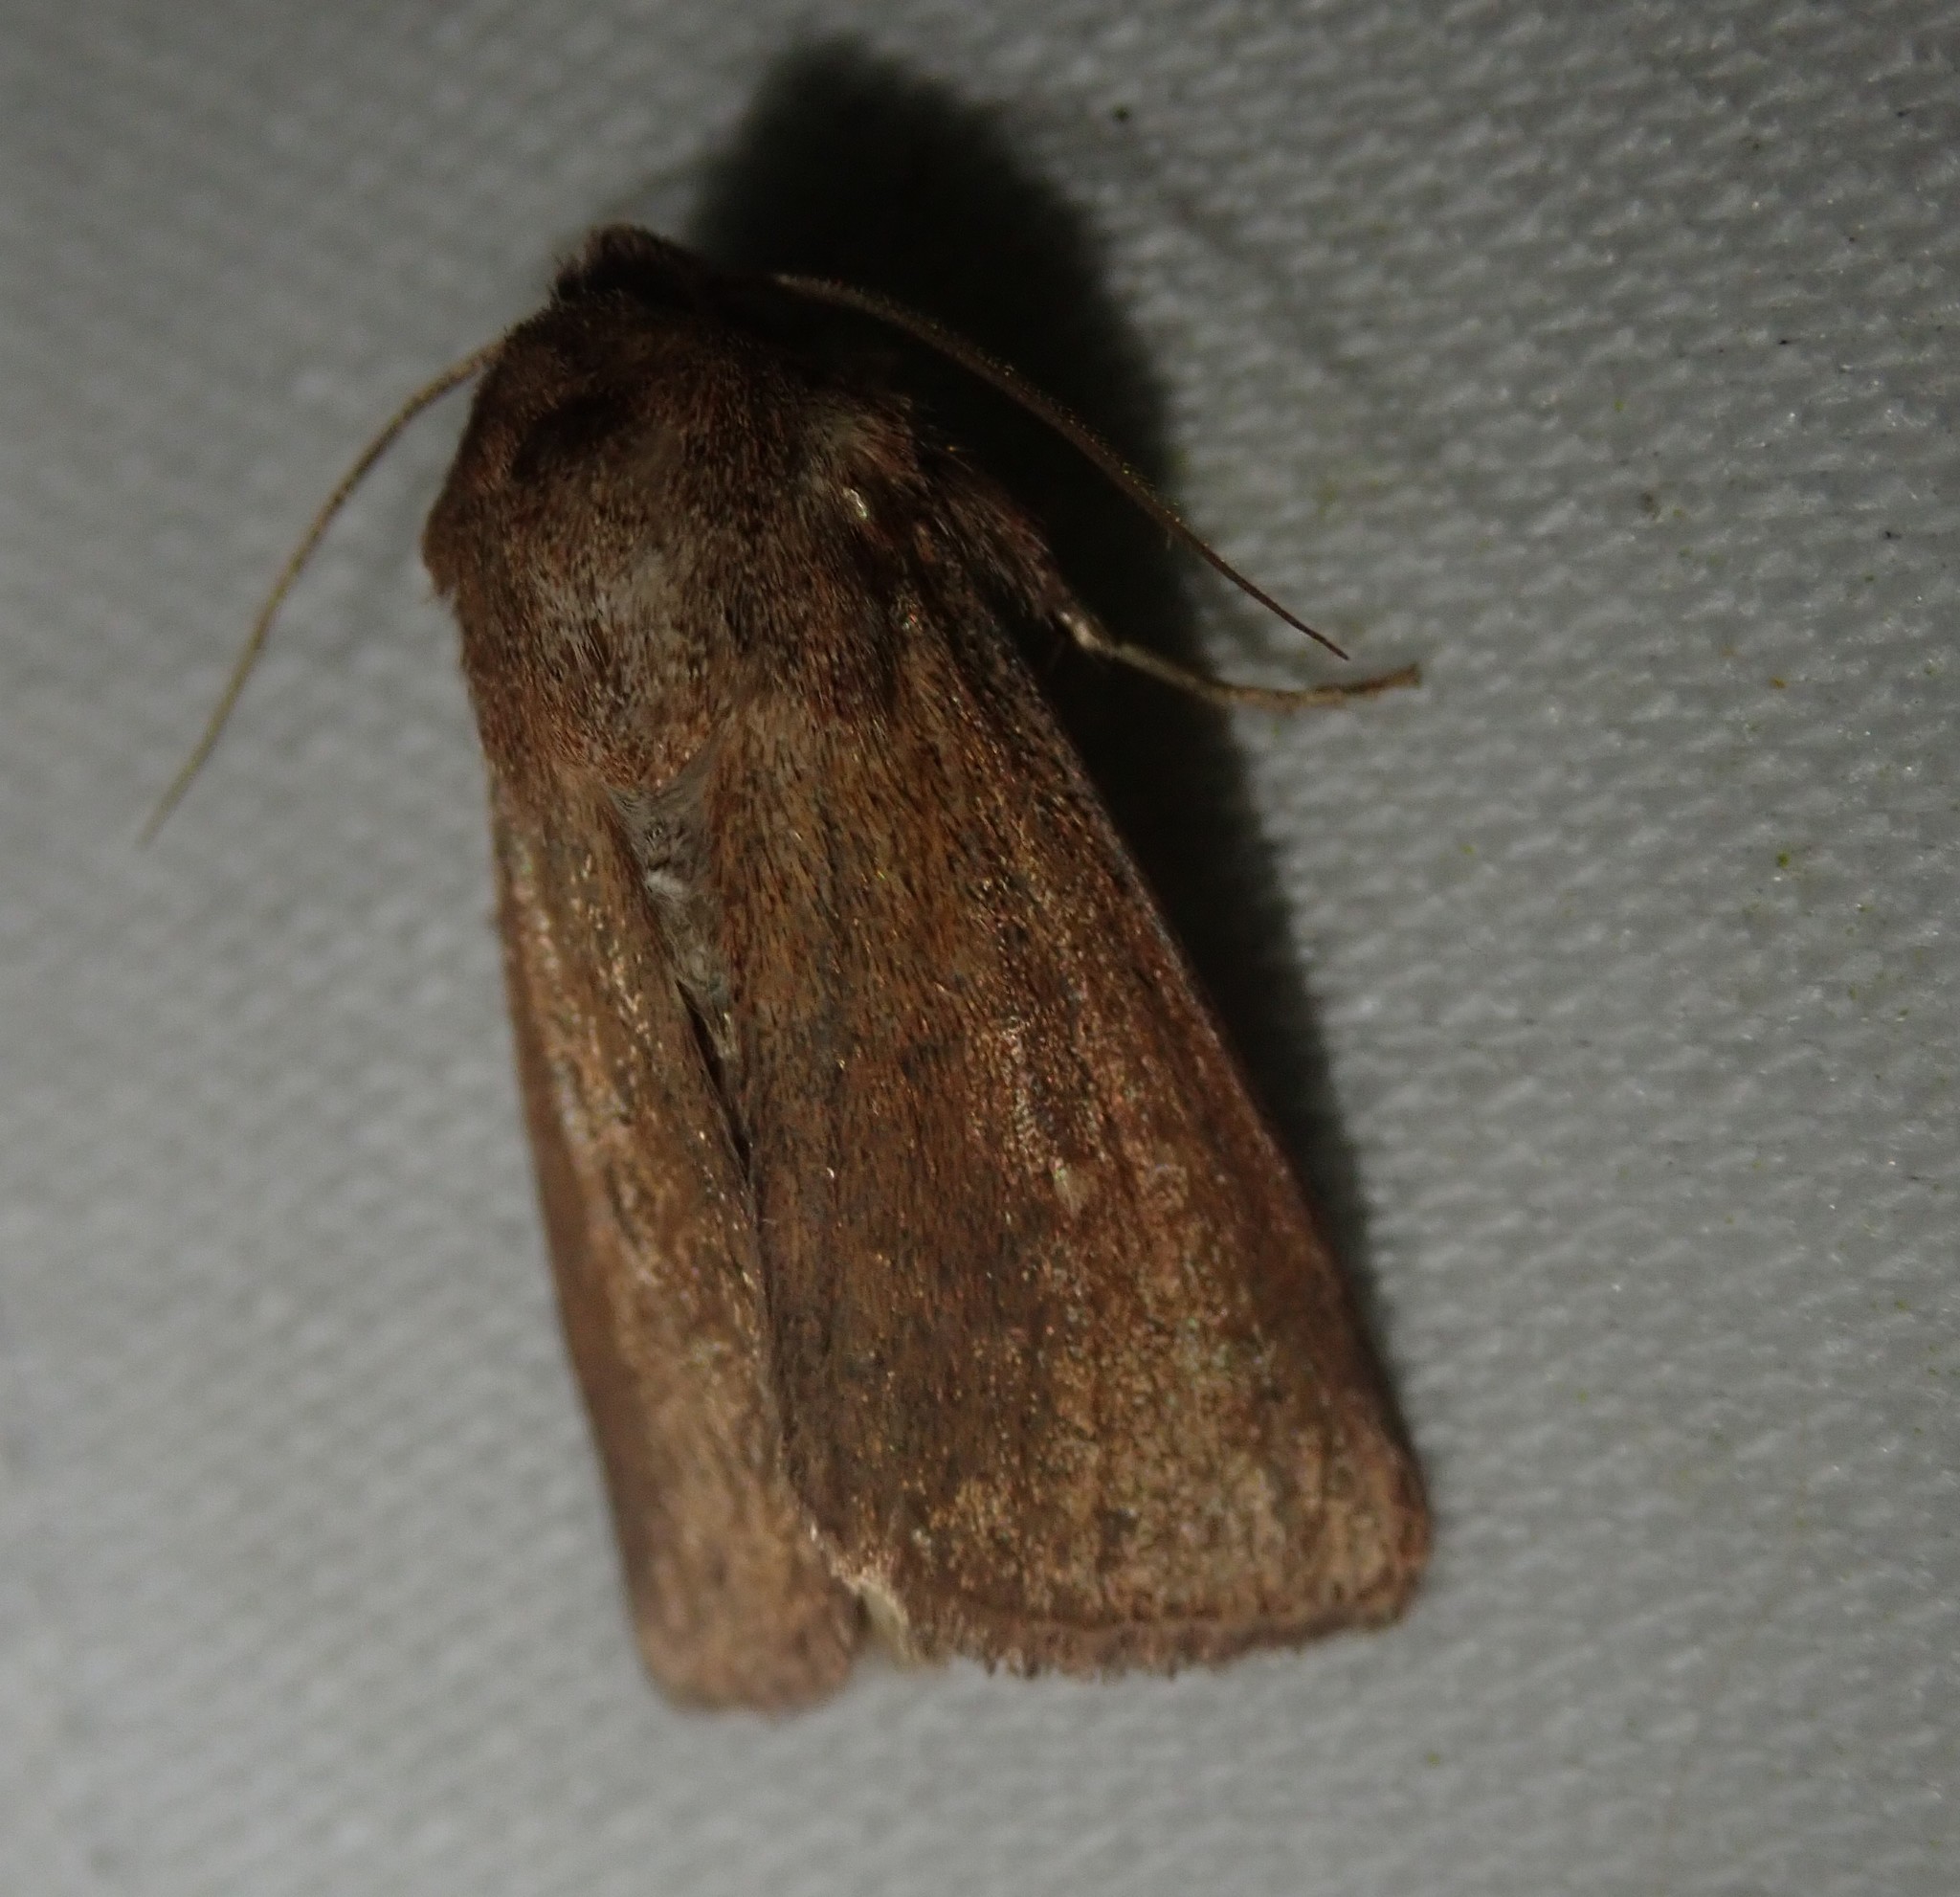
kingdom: Animalia
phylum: Arthropoda
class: Insecta
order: Lepidoptera
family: Noctuidae
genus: Mythimna
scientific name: Mythimna albipuncta
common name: White-point
